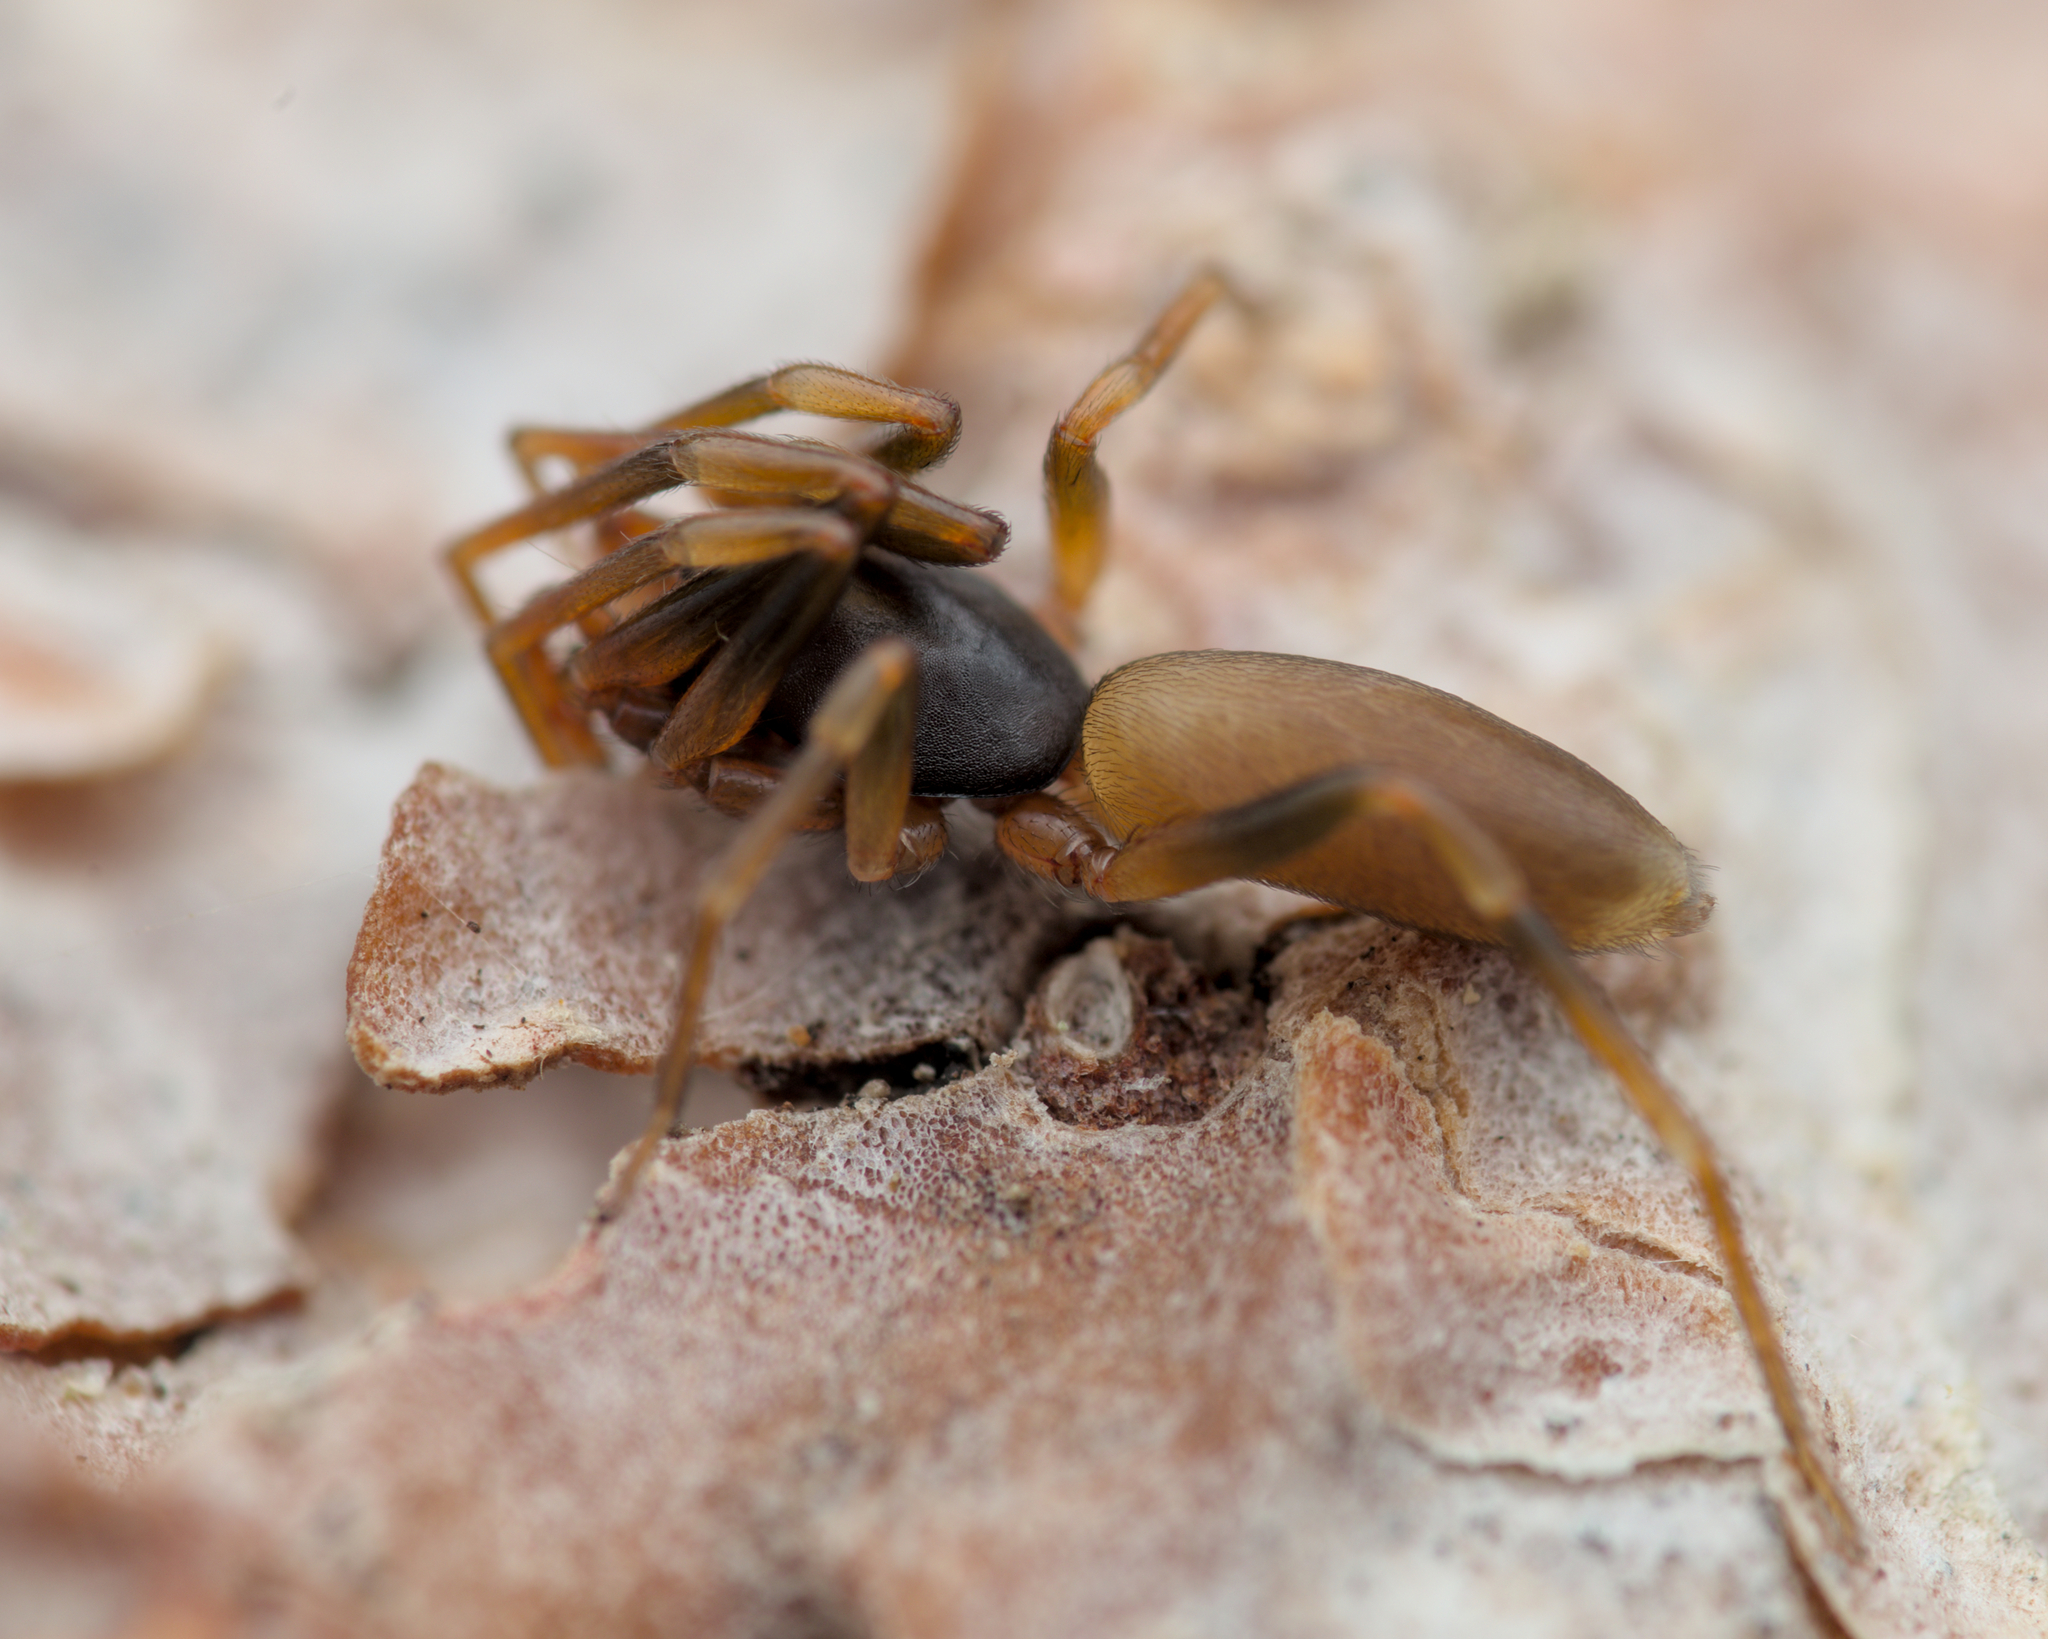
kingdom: Animalia
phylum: Arthropoda
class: Arachnida
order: Araneae
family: Dysderidae
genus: Harpactea
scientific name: Harpactea hombergi
